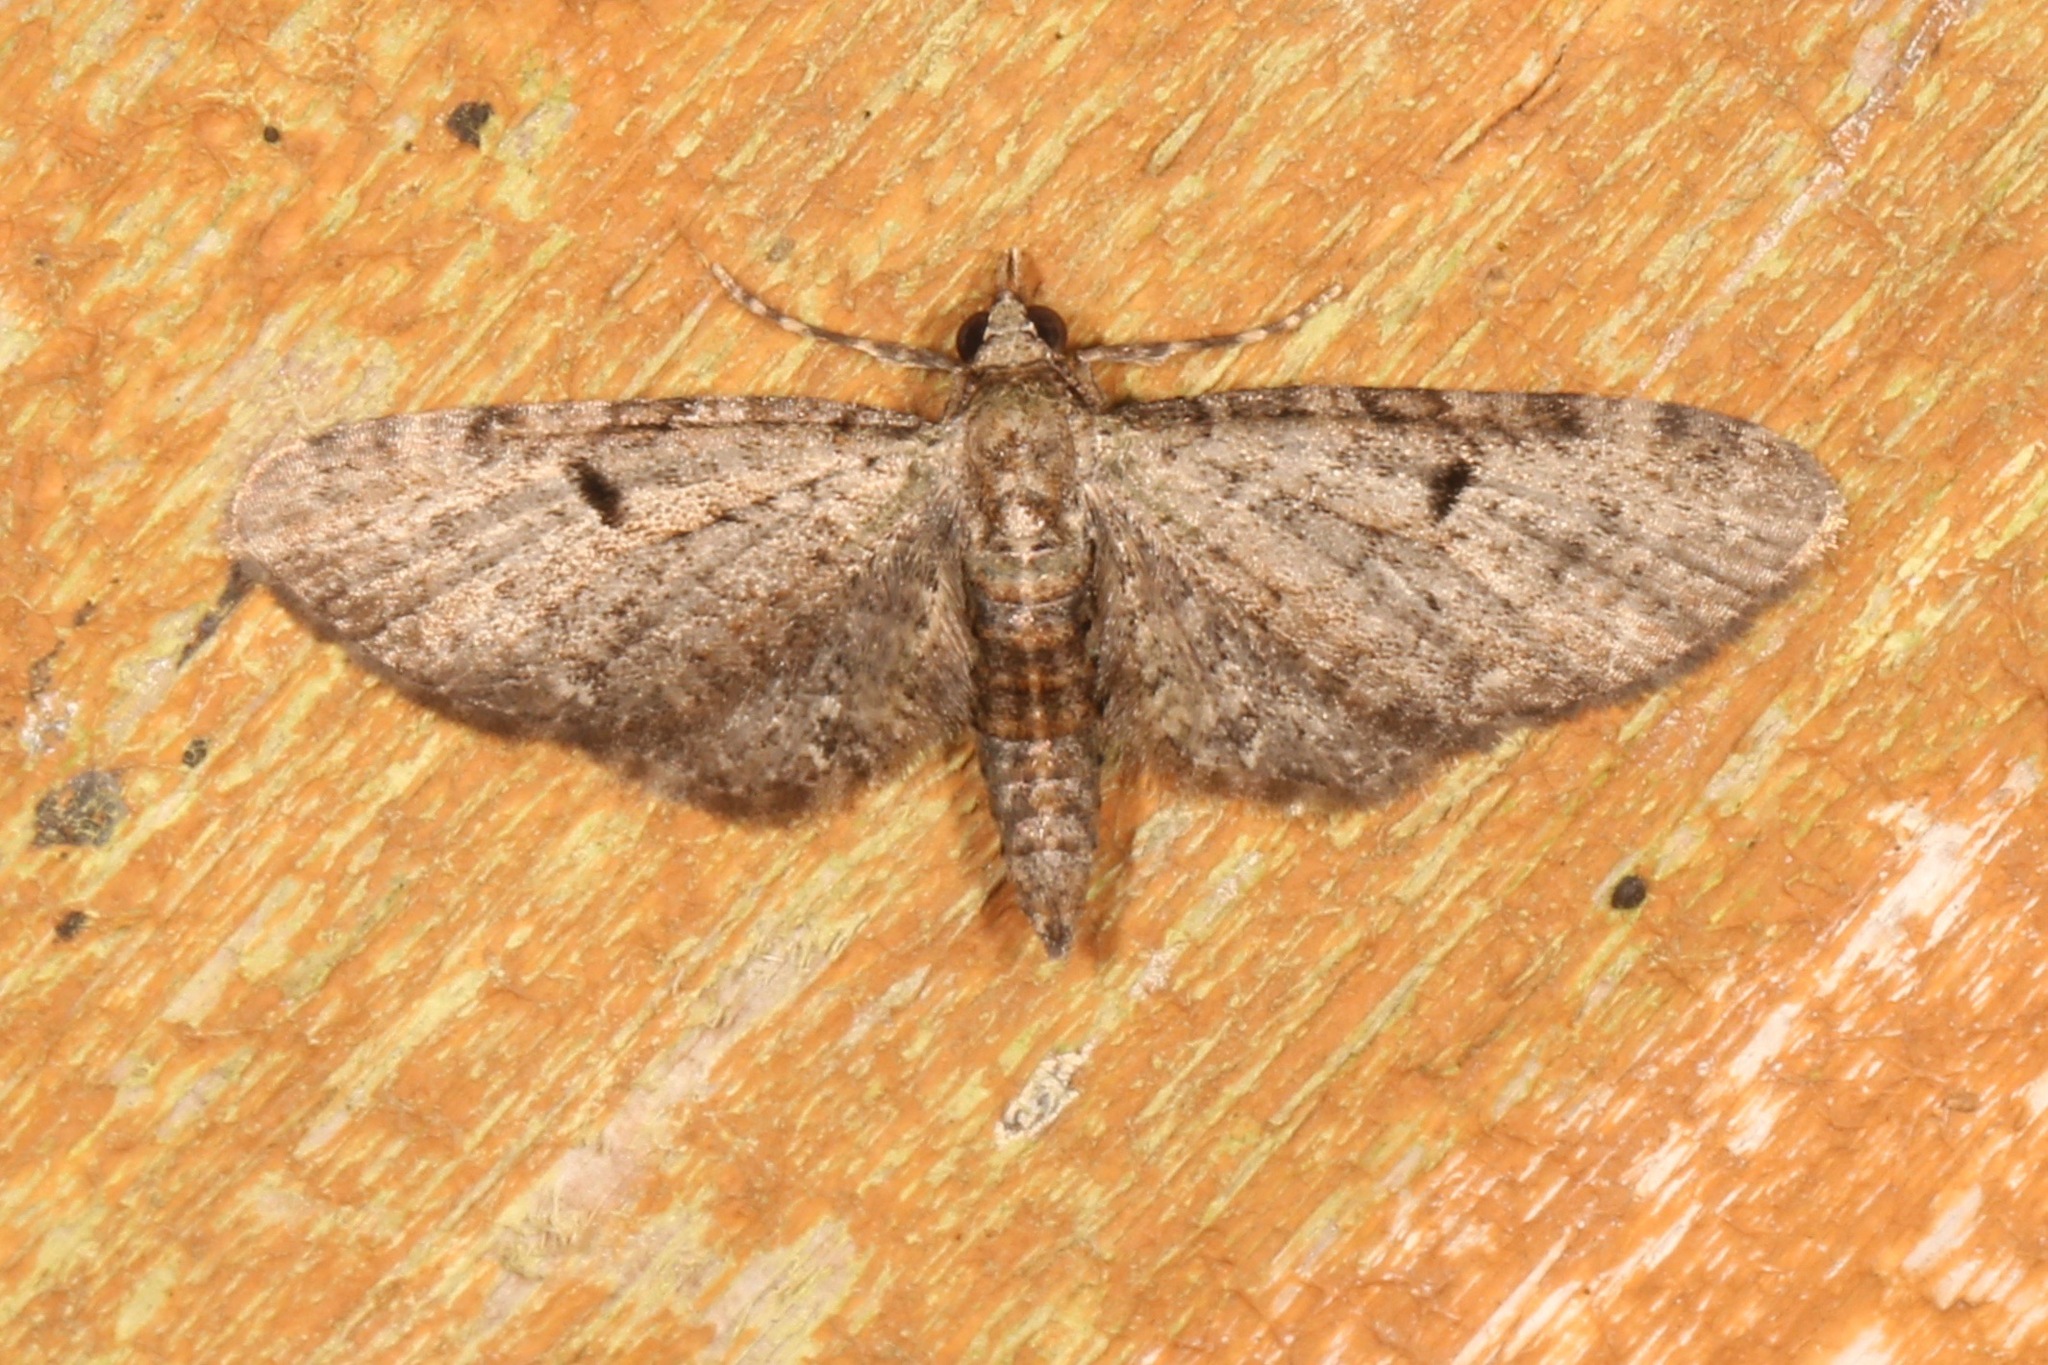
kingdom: Animalia
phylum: Arthropoda
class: Insecta
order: Lepidoptera
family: Geometridae
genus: Eupithecia
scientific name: Eupithecia miserulata
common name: Common eupithecia
